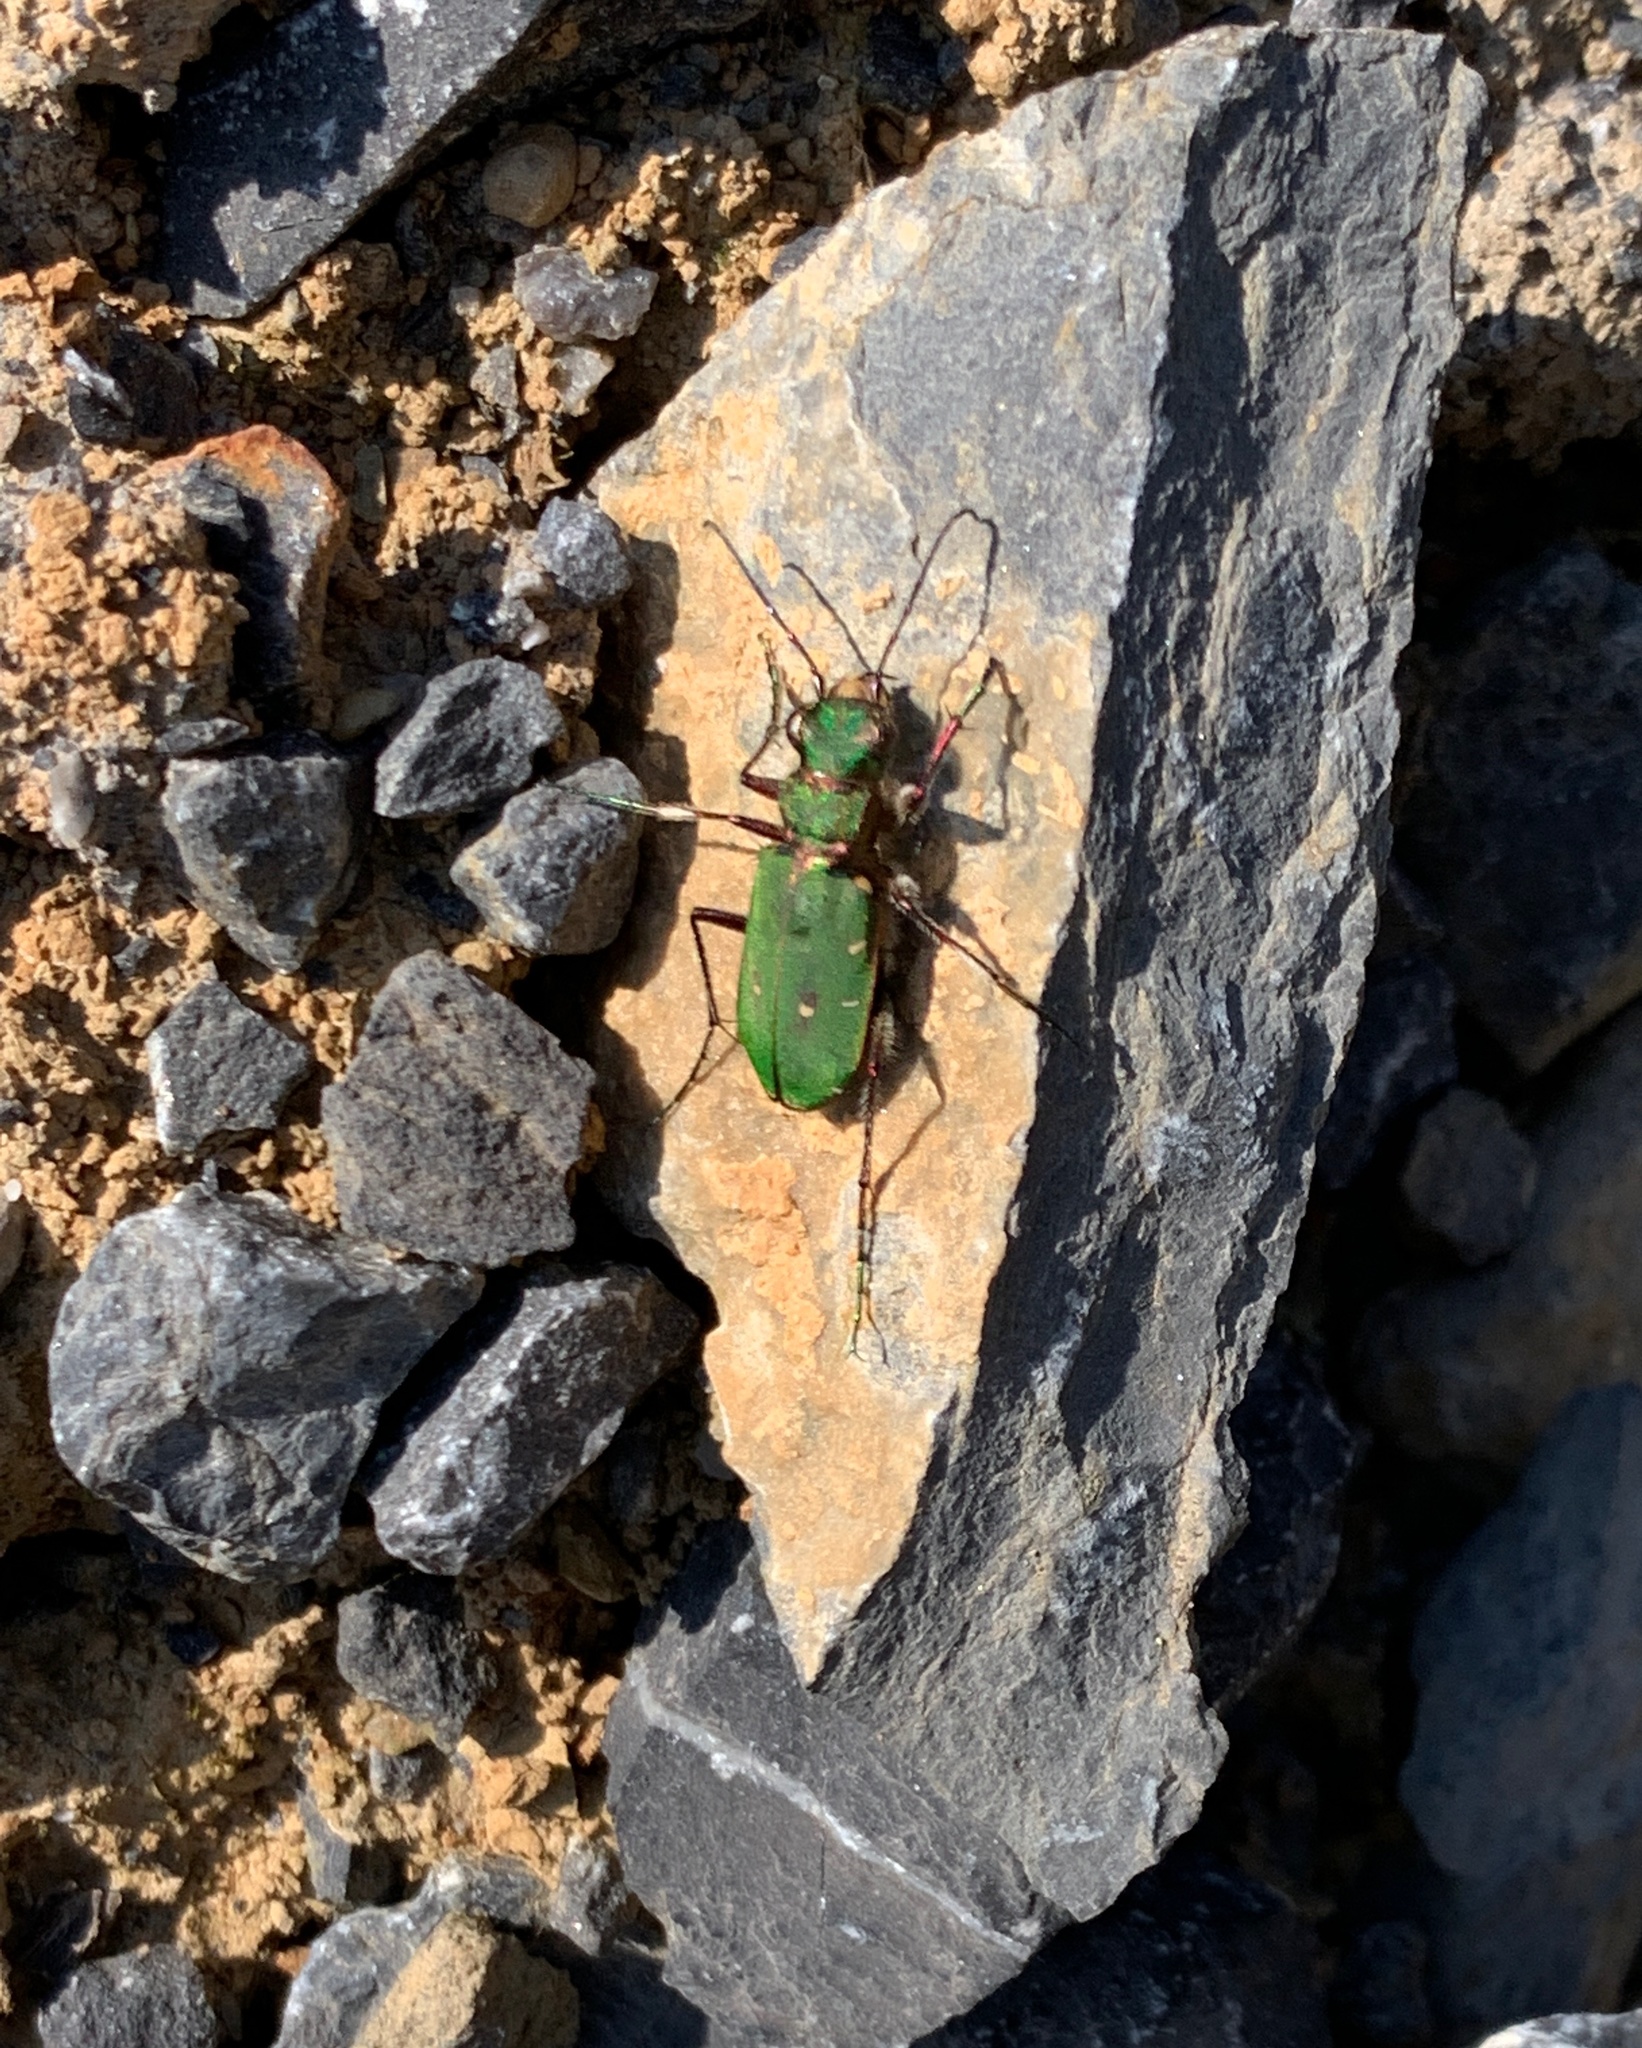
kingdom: Animalia
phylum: Arthropoda
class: Insecta
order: Coleoptera
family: Carabidae
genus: Cicindela
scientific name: Cicindela campestris
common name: Common tiger beetle
